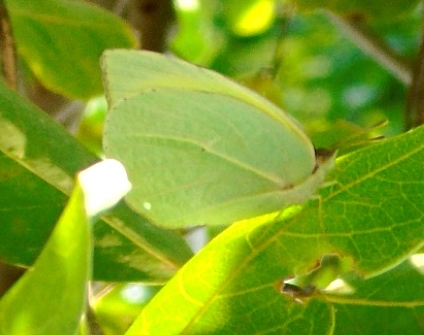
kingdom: Animalia
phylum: Arthropoda
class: Insecta
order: Lepidoptera
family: Pieridae
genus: Kricogonia
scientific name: Kricogonia lyside
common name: Guayacan sulphur,
